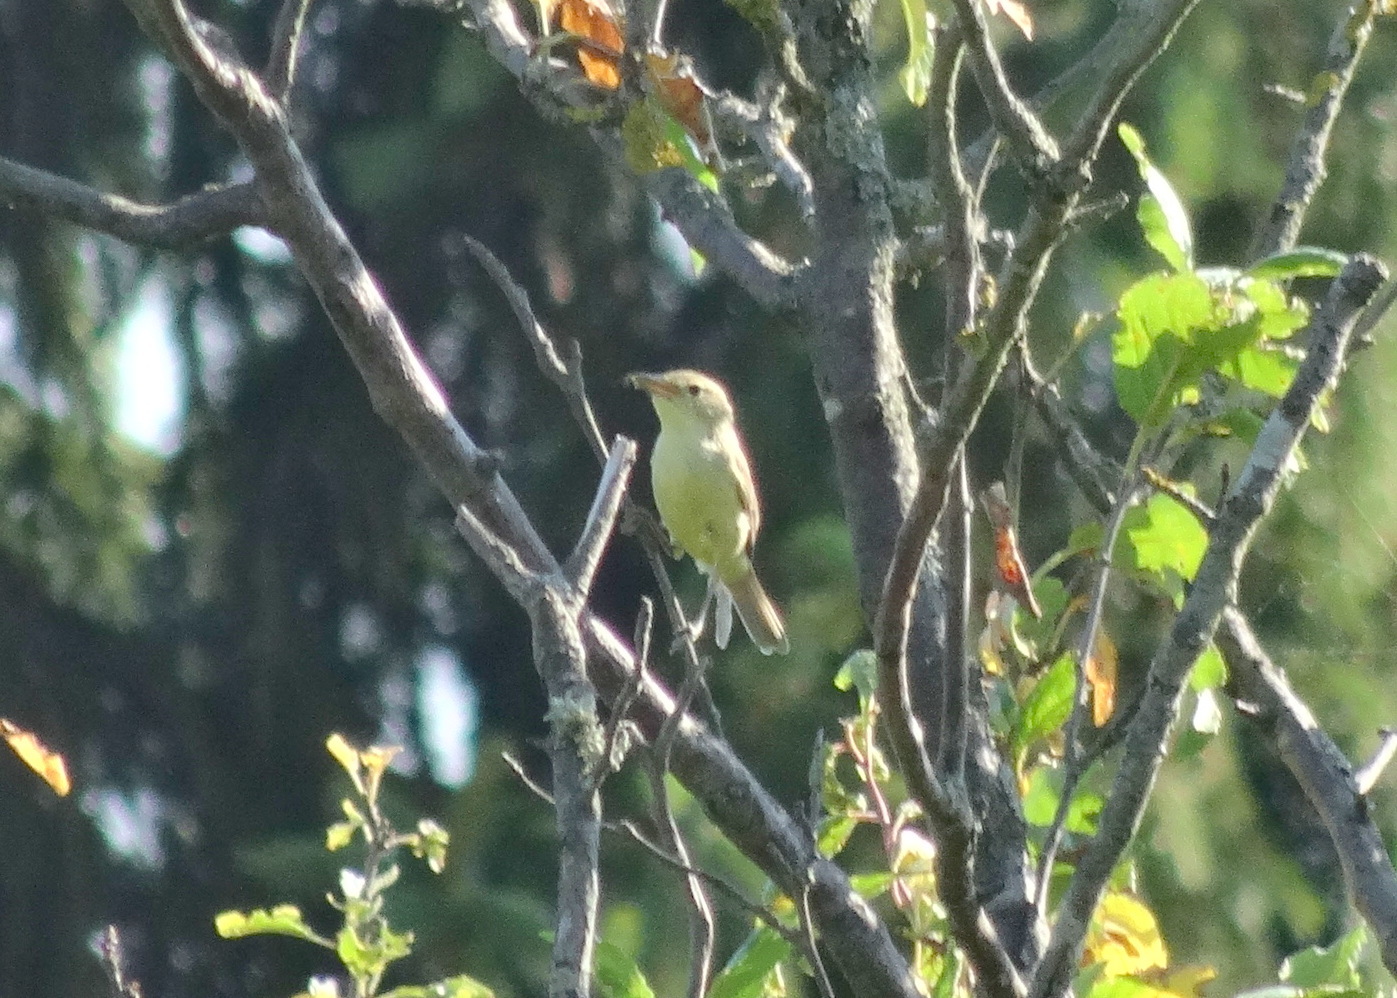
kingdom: Animalia
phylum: Chordata
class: Aves
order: Passeriformes
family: Acrocephalidae
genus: Hippolais
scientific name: Hippolais polyglotta
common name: Melodious warbler
